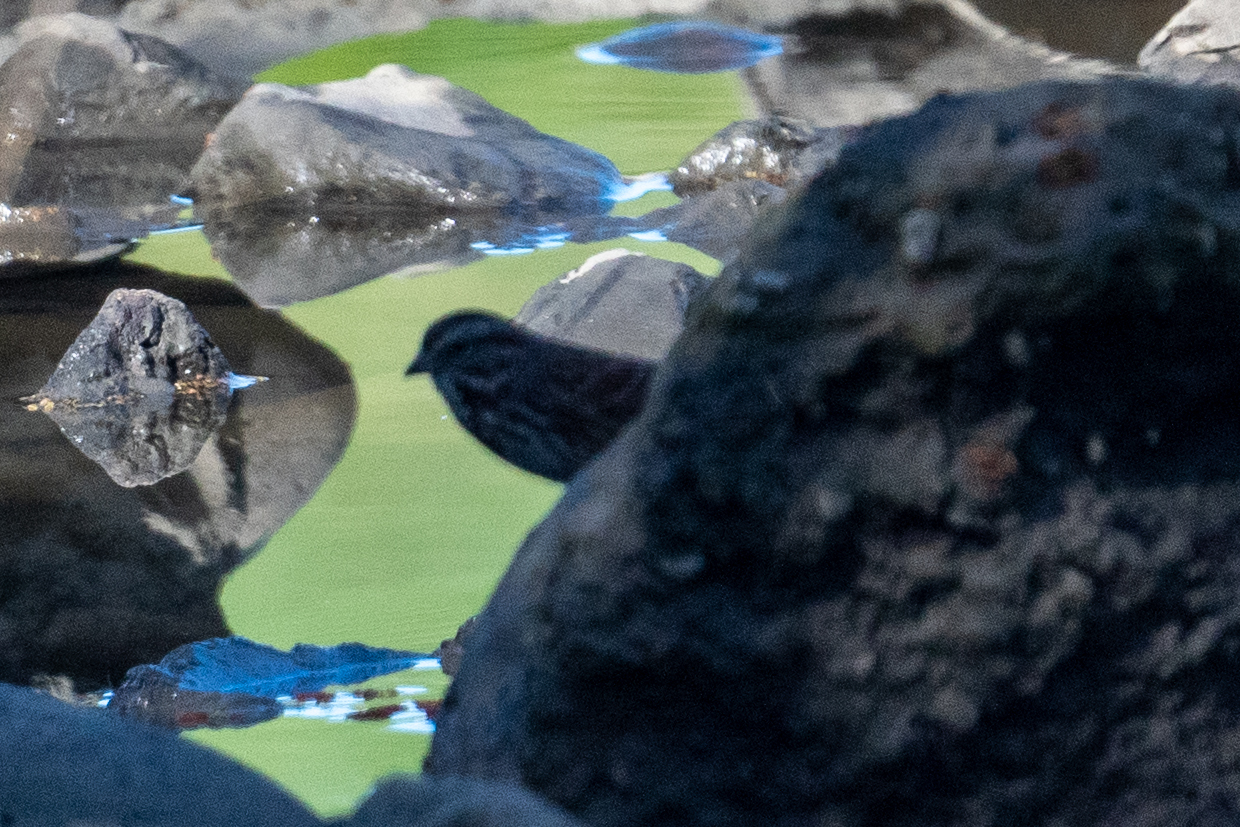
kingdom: Animalia
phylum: Chordata
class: Aves
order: Passeriformes
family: Passerellidae
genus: Melospiza
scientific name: Melospiza melodia
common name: Song sparrow
